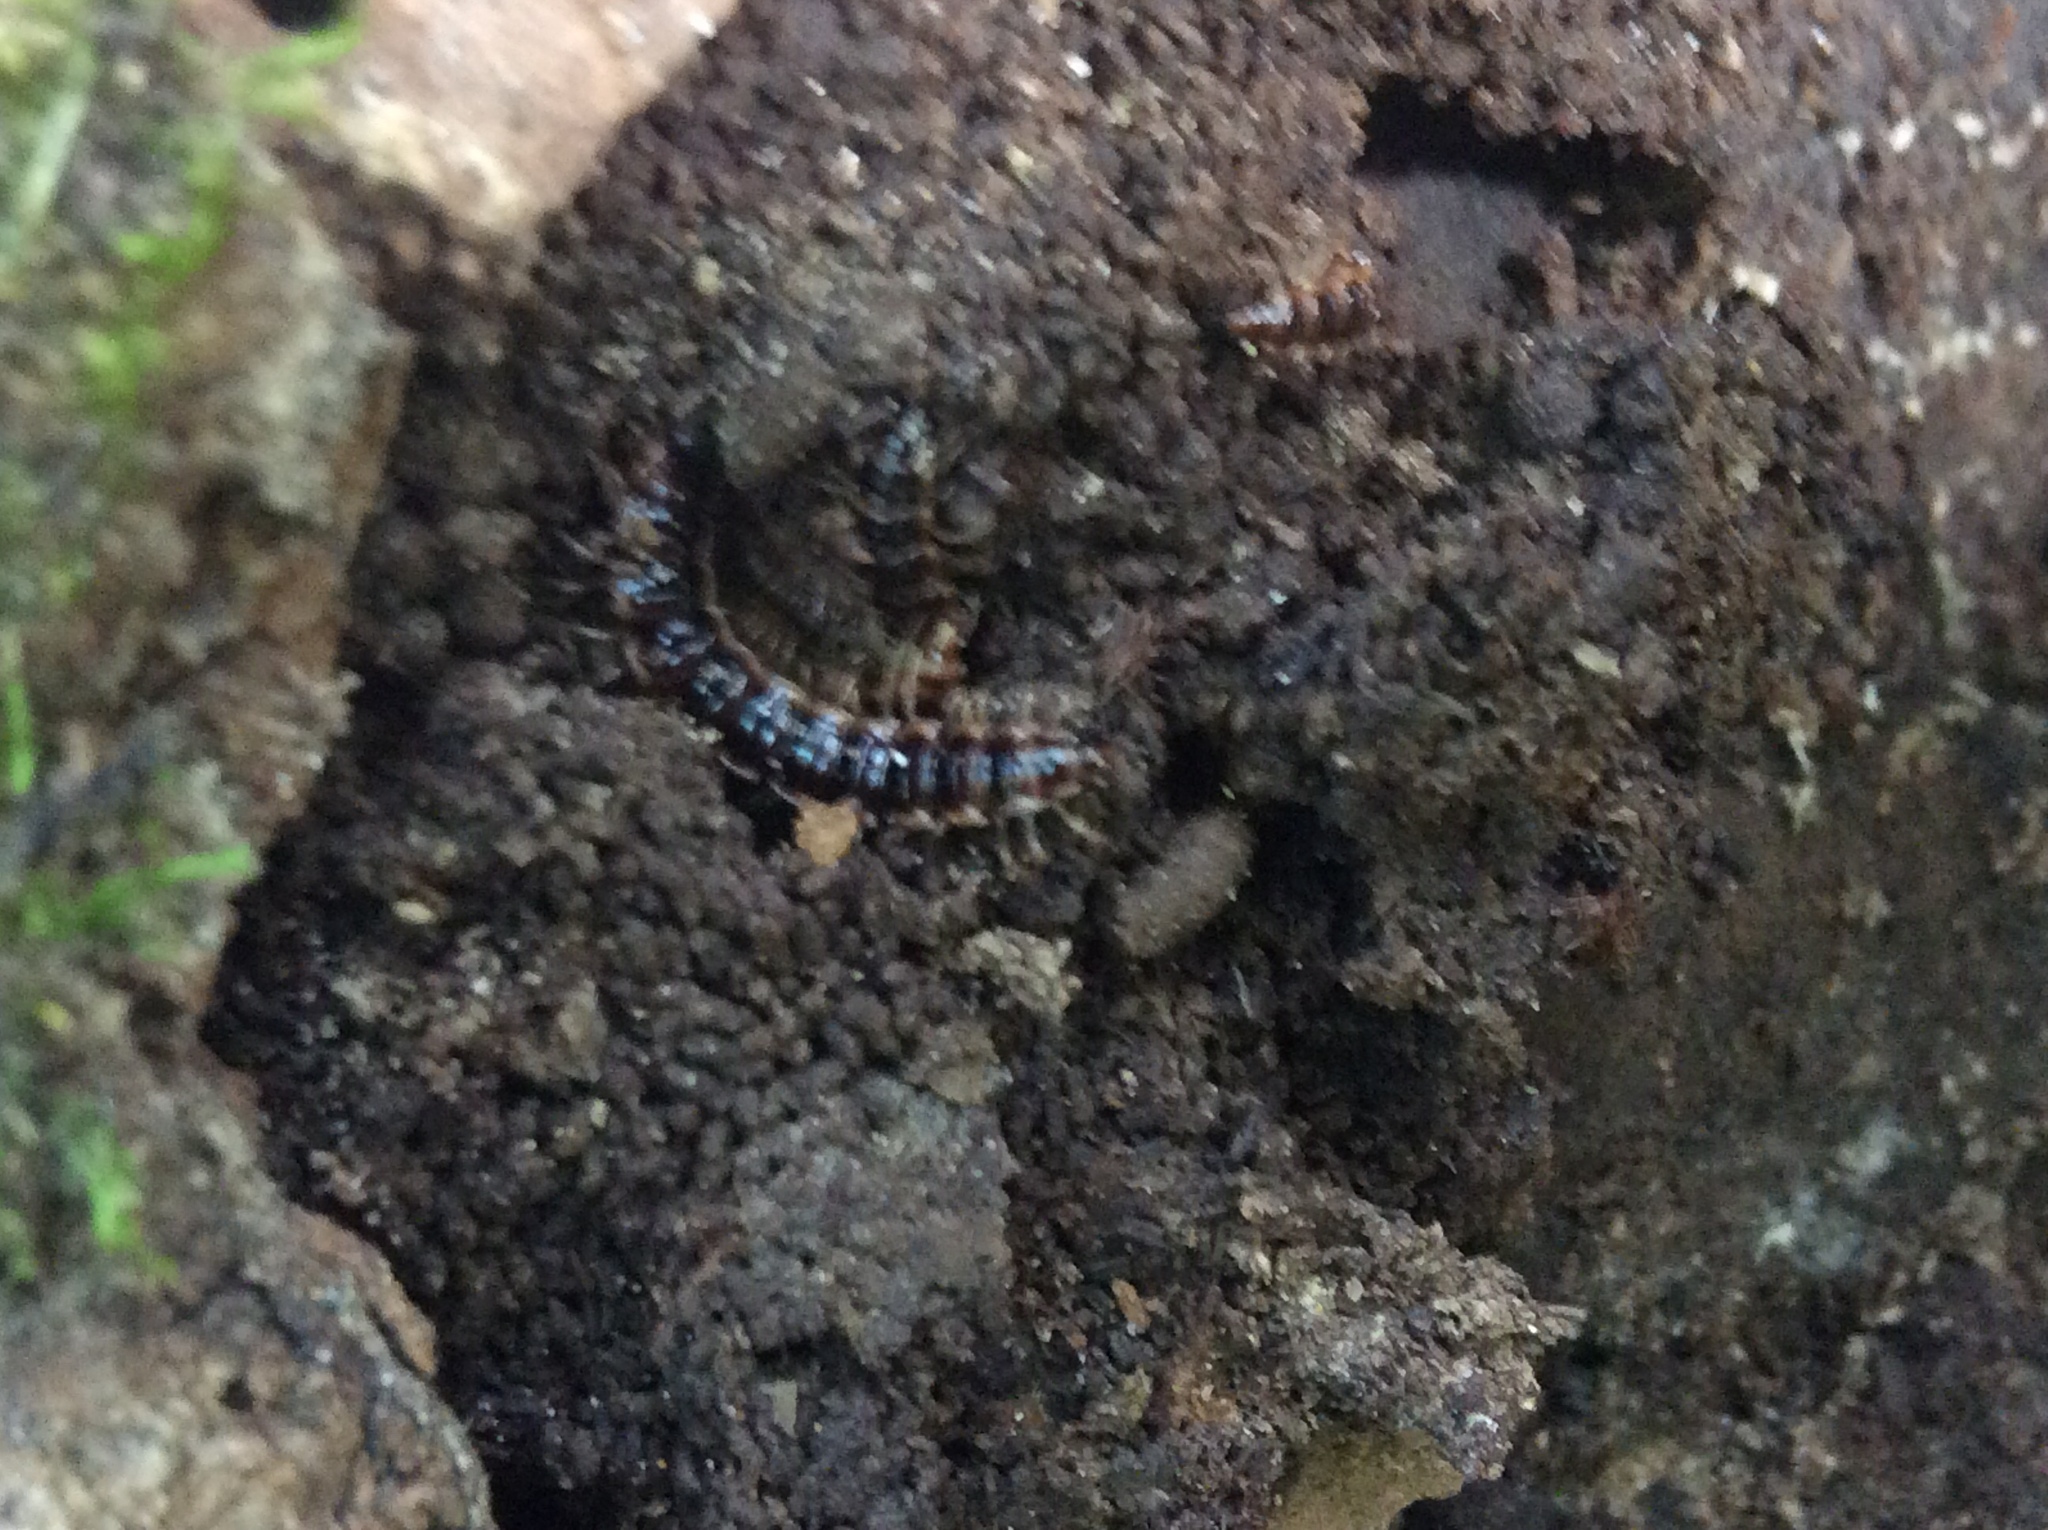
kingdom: Animalia
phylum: Arthropoda
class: Diplopoda
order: Polydesmida
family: Paradoxosomatidae
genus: Oxidus
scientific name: Oxidus gracilis
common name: Greenhouse millipede
